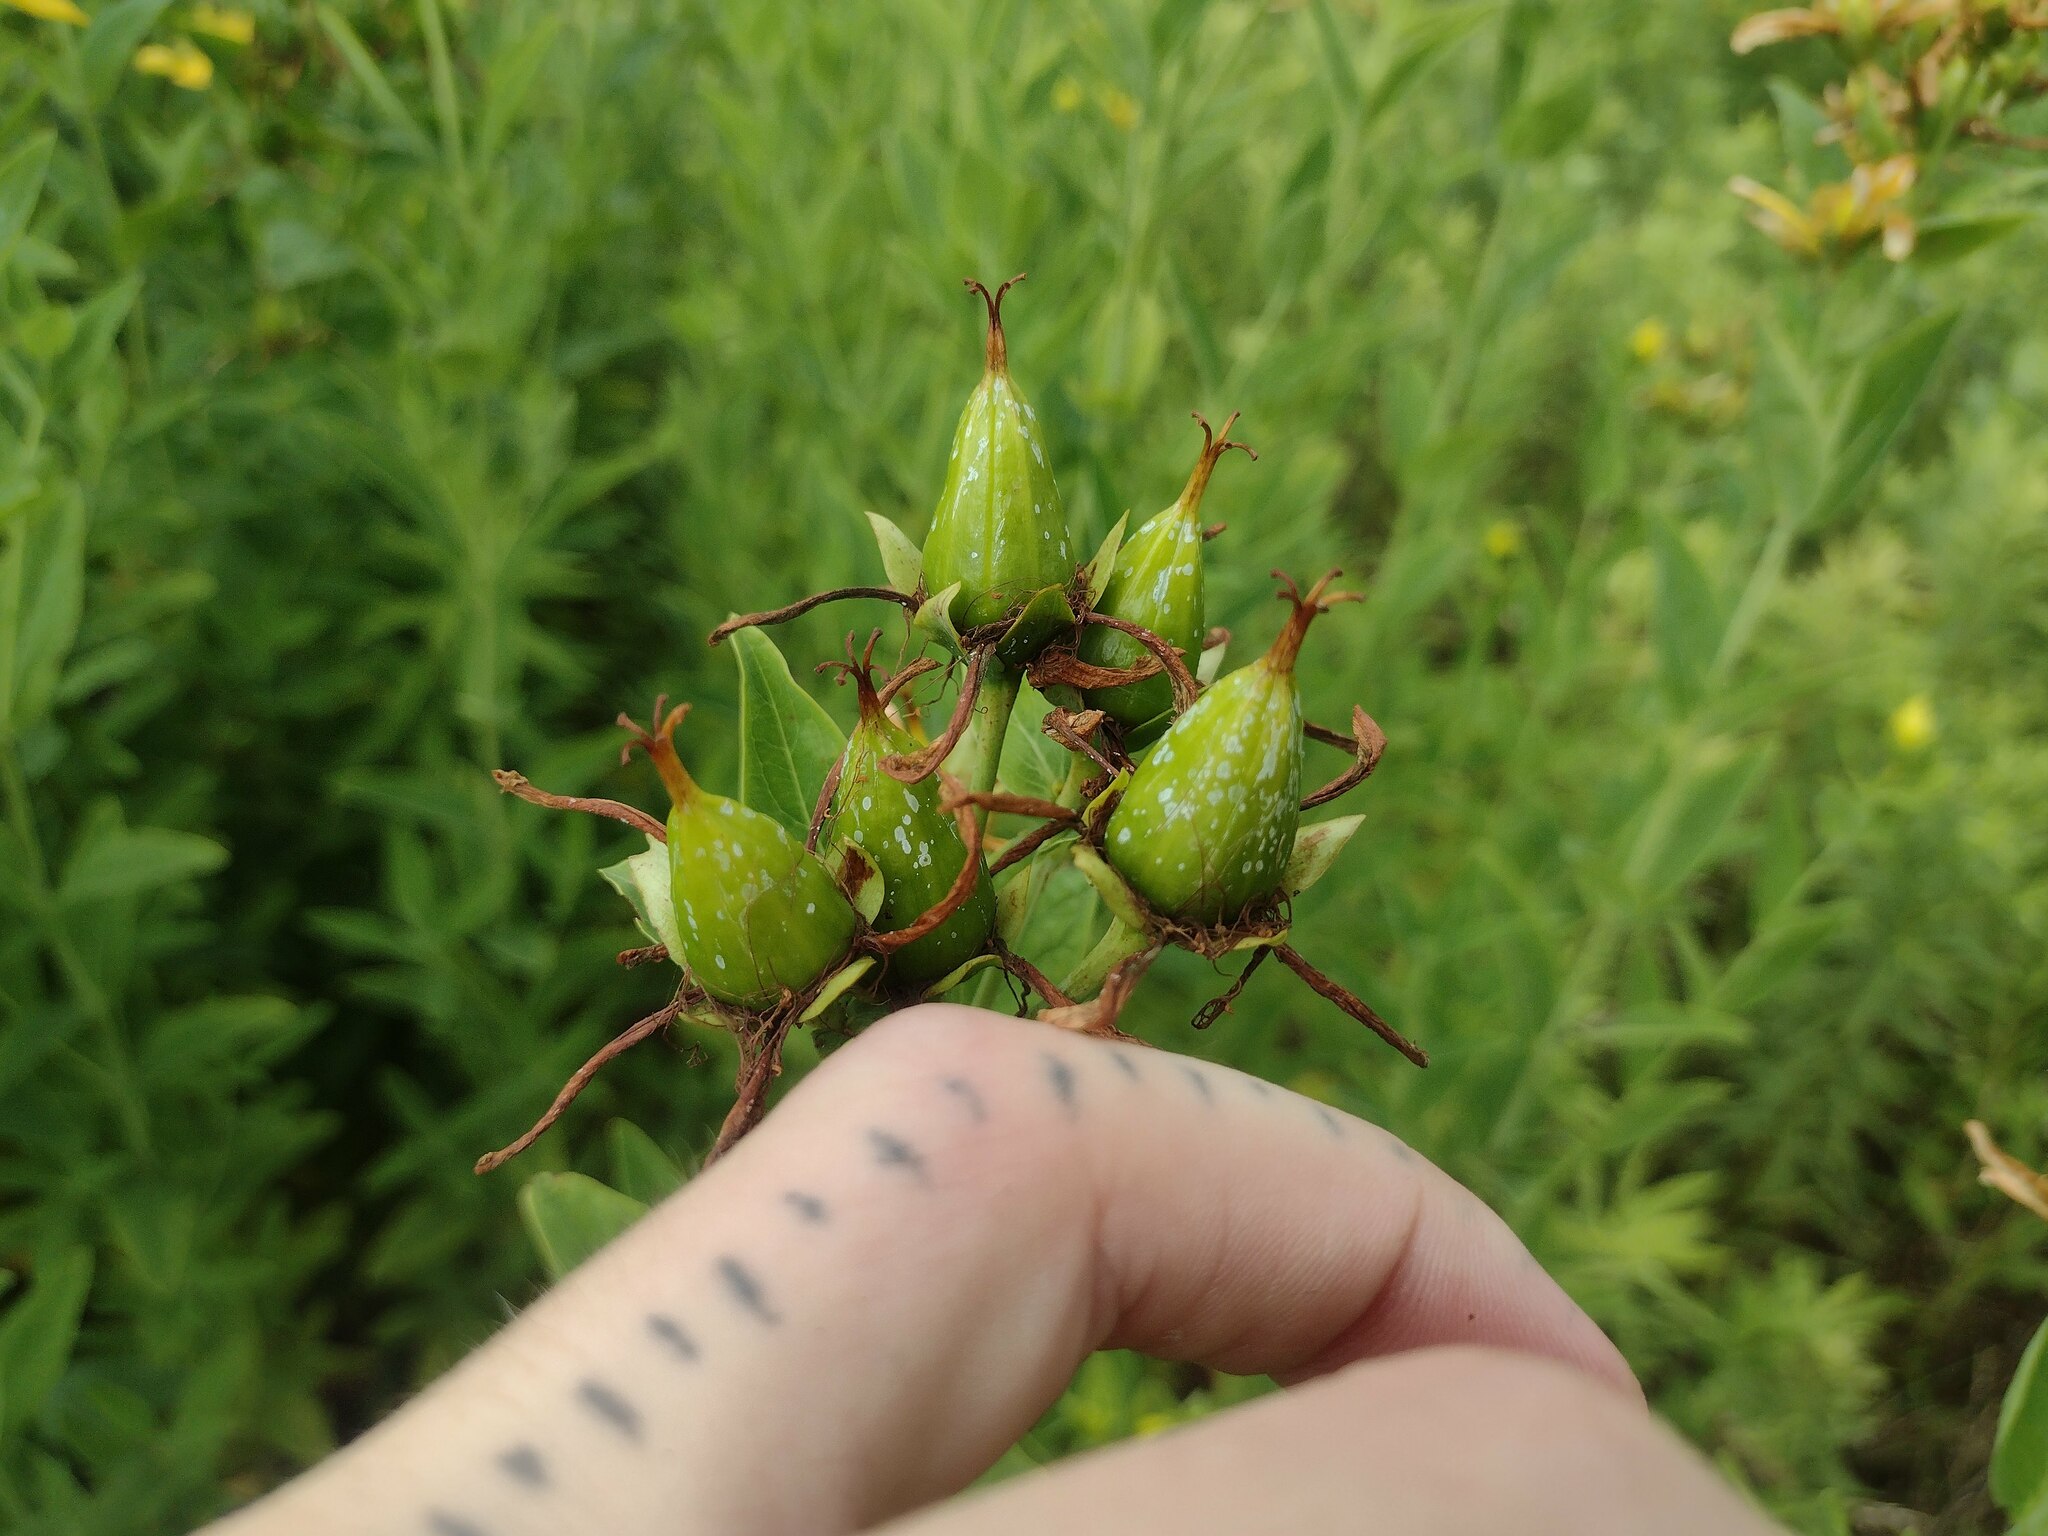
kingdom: Plantae
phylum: Tracheophyta
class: Magnoliopsida
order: Malpighiales
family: Hypericaceae
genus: Hypericum
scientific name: Hypericum ascyron
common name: Giant st. john's-wort
